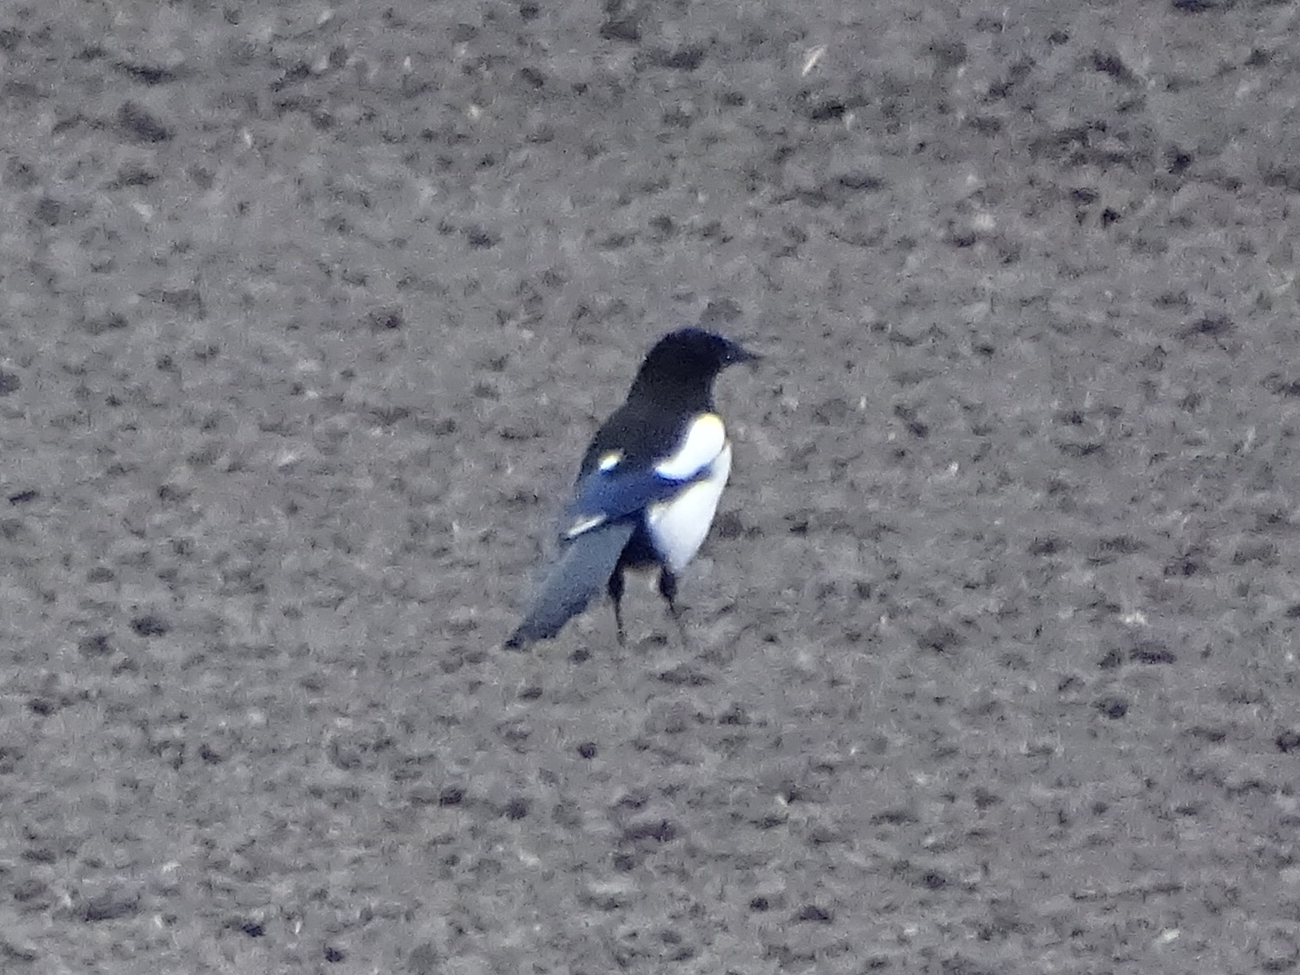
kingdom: Animalia
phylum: Chordata
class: Aves
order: Passeriformes
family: Corvidae
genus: Pica
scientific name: Pica pica
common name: Eurasian magpie
